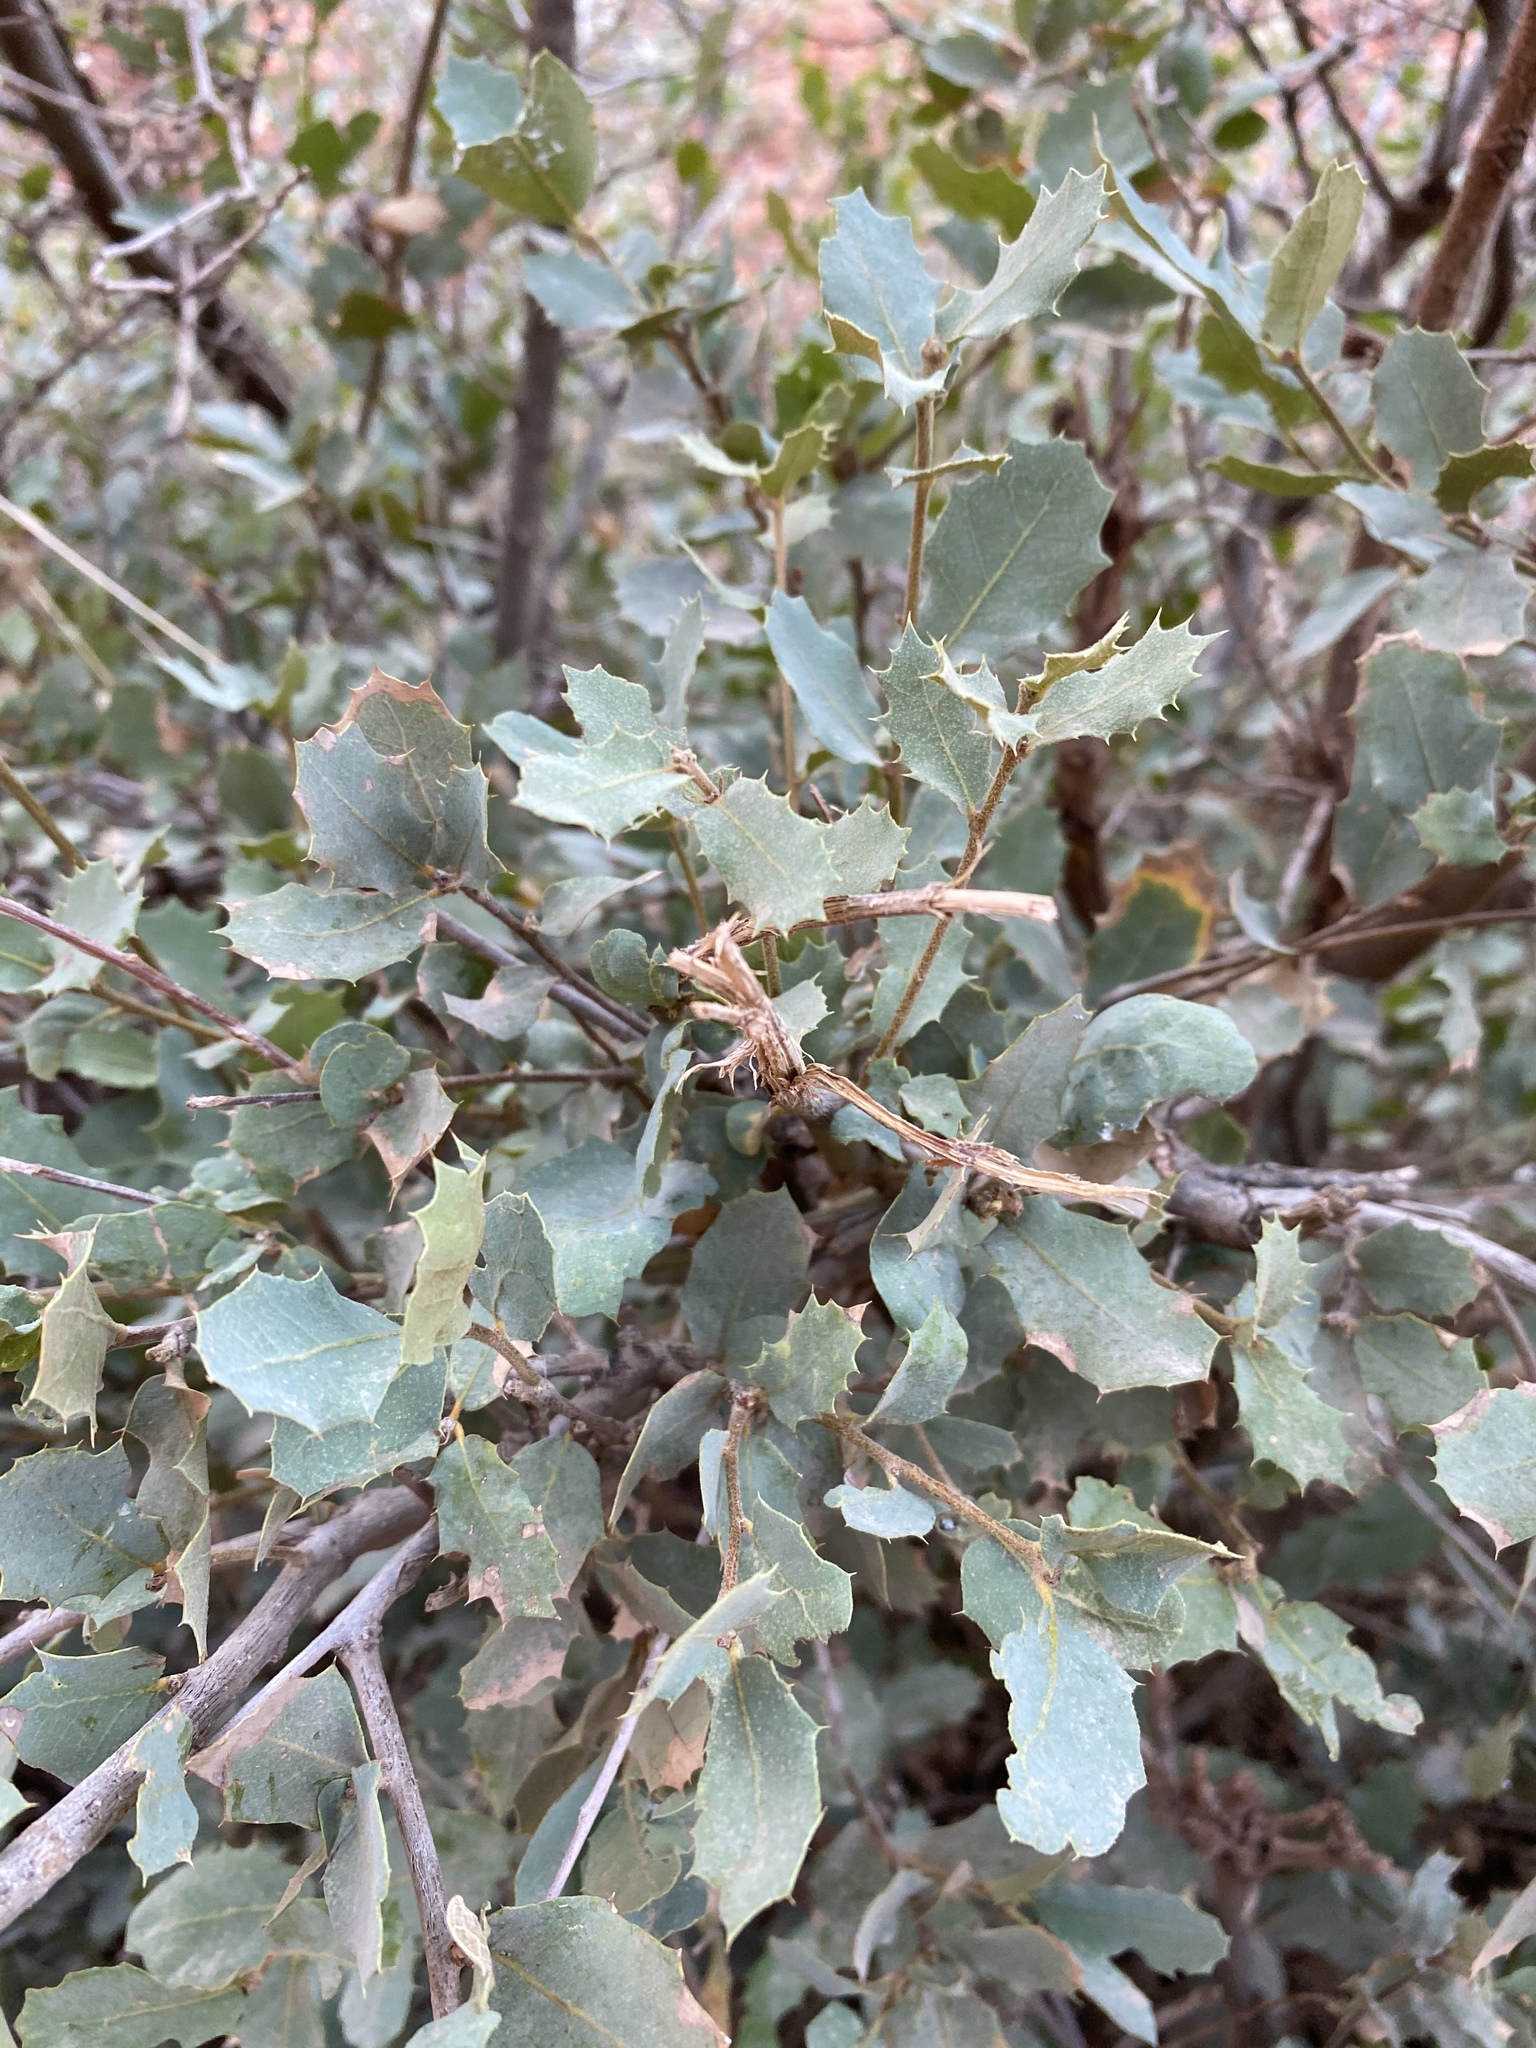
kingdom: Plantae
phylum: Tracheophyta
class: Magnoliopsida
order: Fagales
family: Fagaceae
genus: Quercus
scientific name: Quercus turbinella
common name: Sonoran scrub oak
